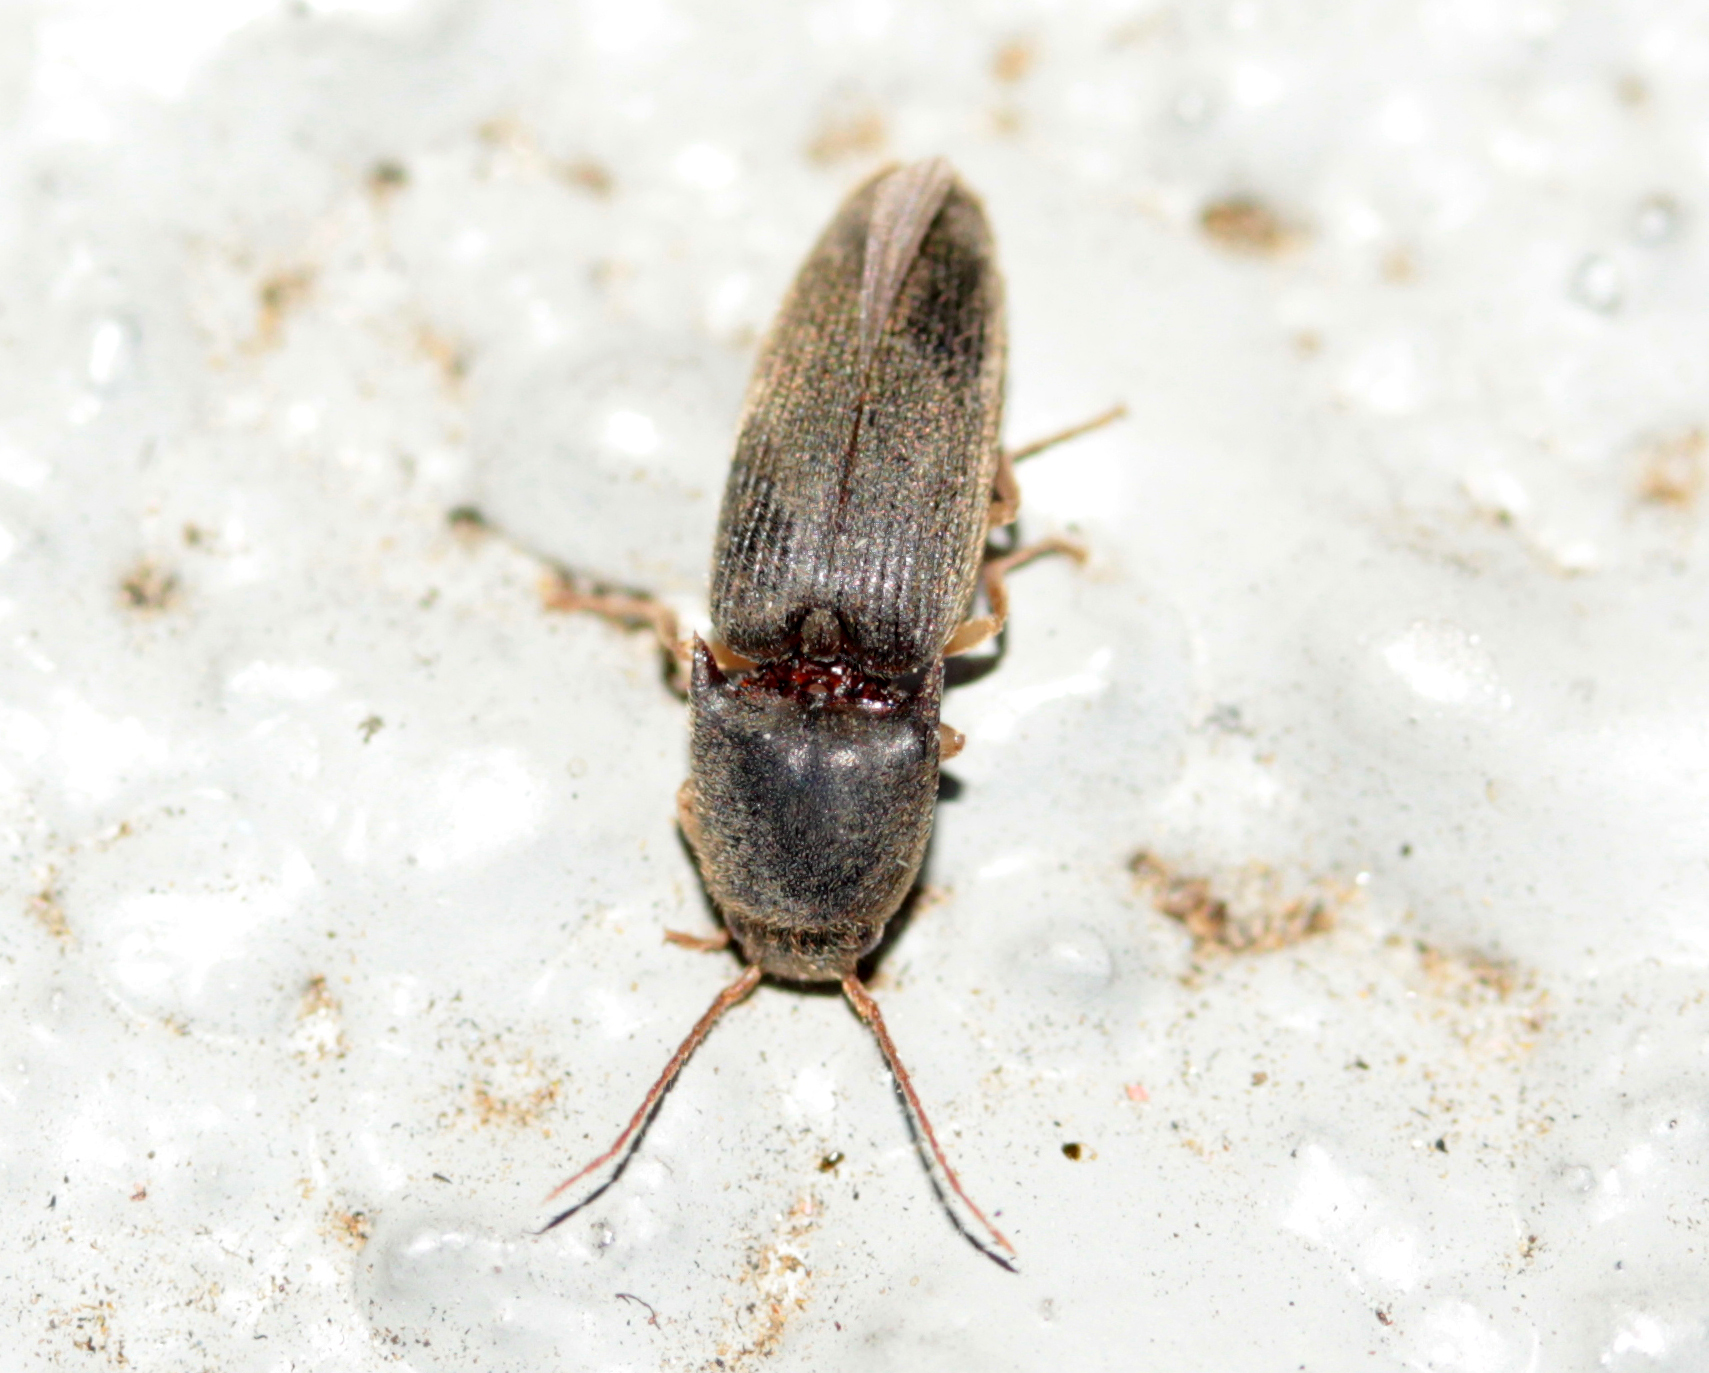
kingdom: Animalia
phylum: Arthropoda
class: Insecta
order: Coleoptera
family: Elateridae
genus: Conoderus
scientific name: Conoderus exsul
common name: Click beetle
